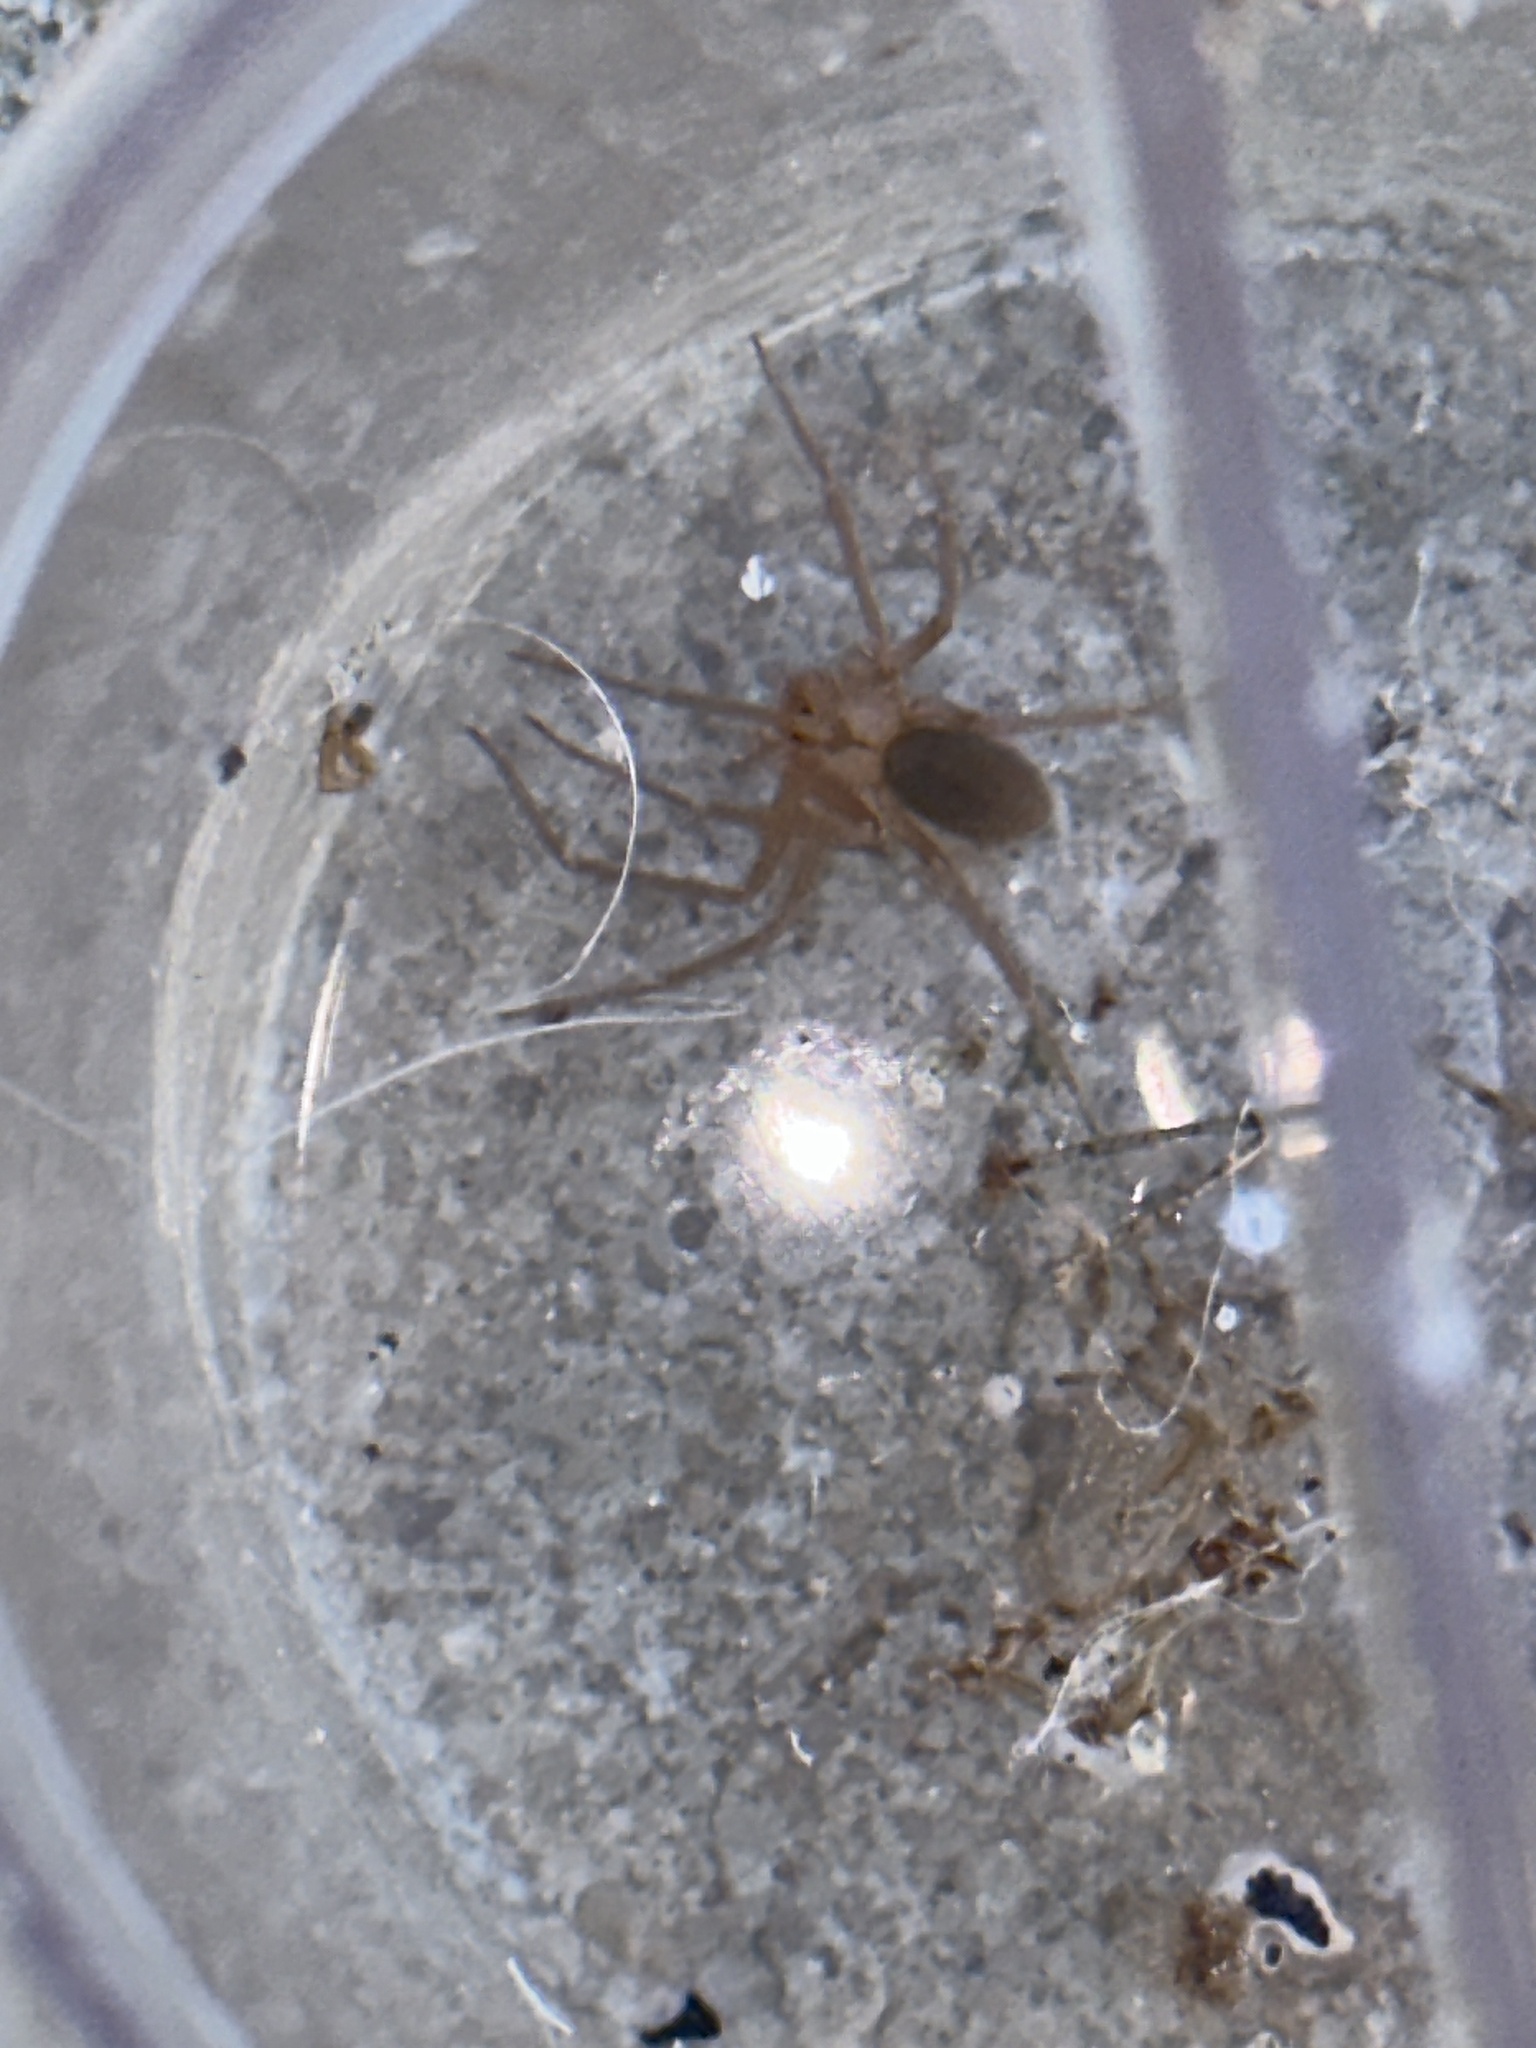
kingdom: Animalia
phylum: Arthropoda
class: Arachnida
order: Araneae
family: Sicariidae
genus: Loxosceles
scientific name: Loxosceles reclusa
